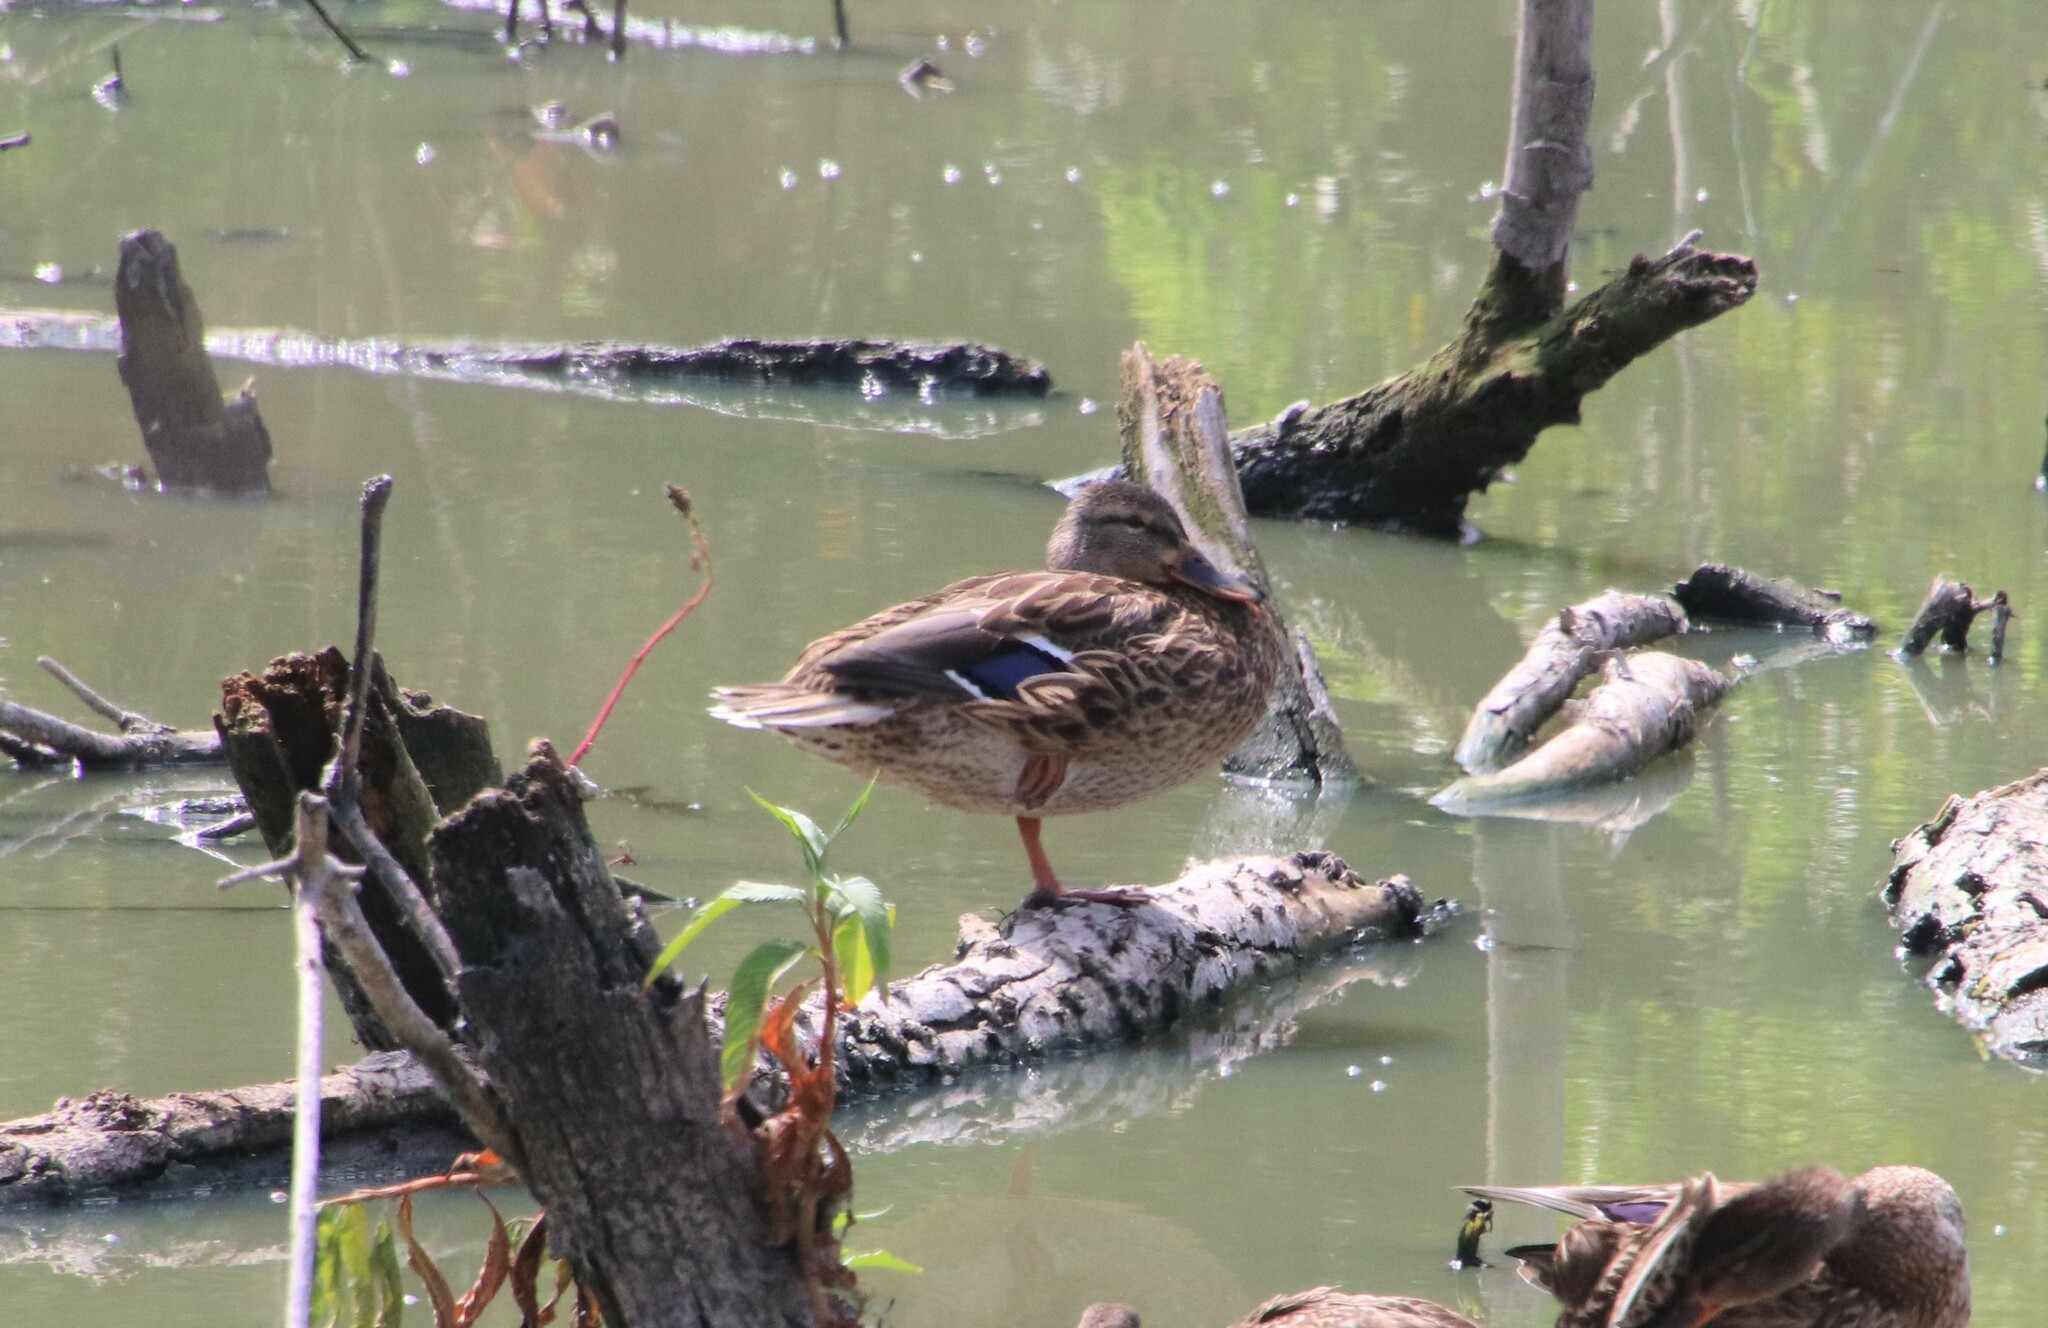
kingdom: Animalia
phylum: Chordata
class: Aves
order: Anseriformes
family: Anatidae
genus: Anas
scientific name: Anas platyrhynchos
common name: Mallard
